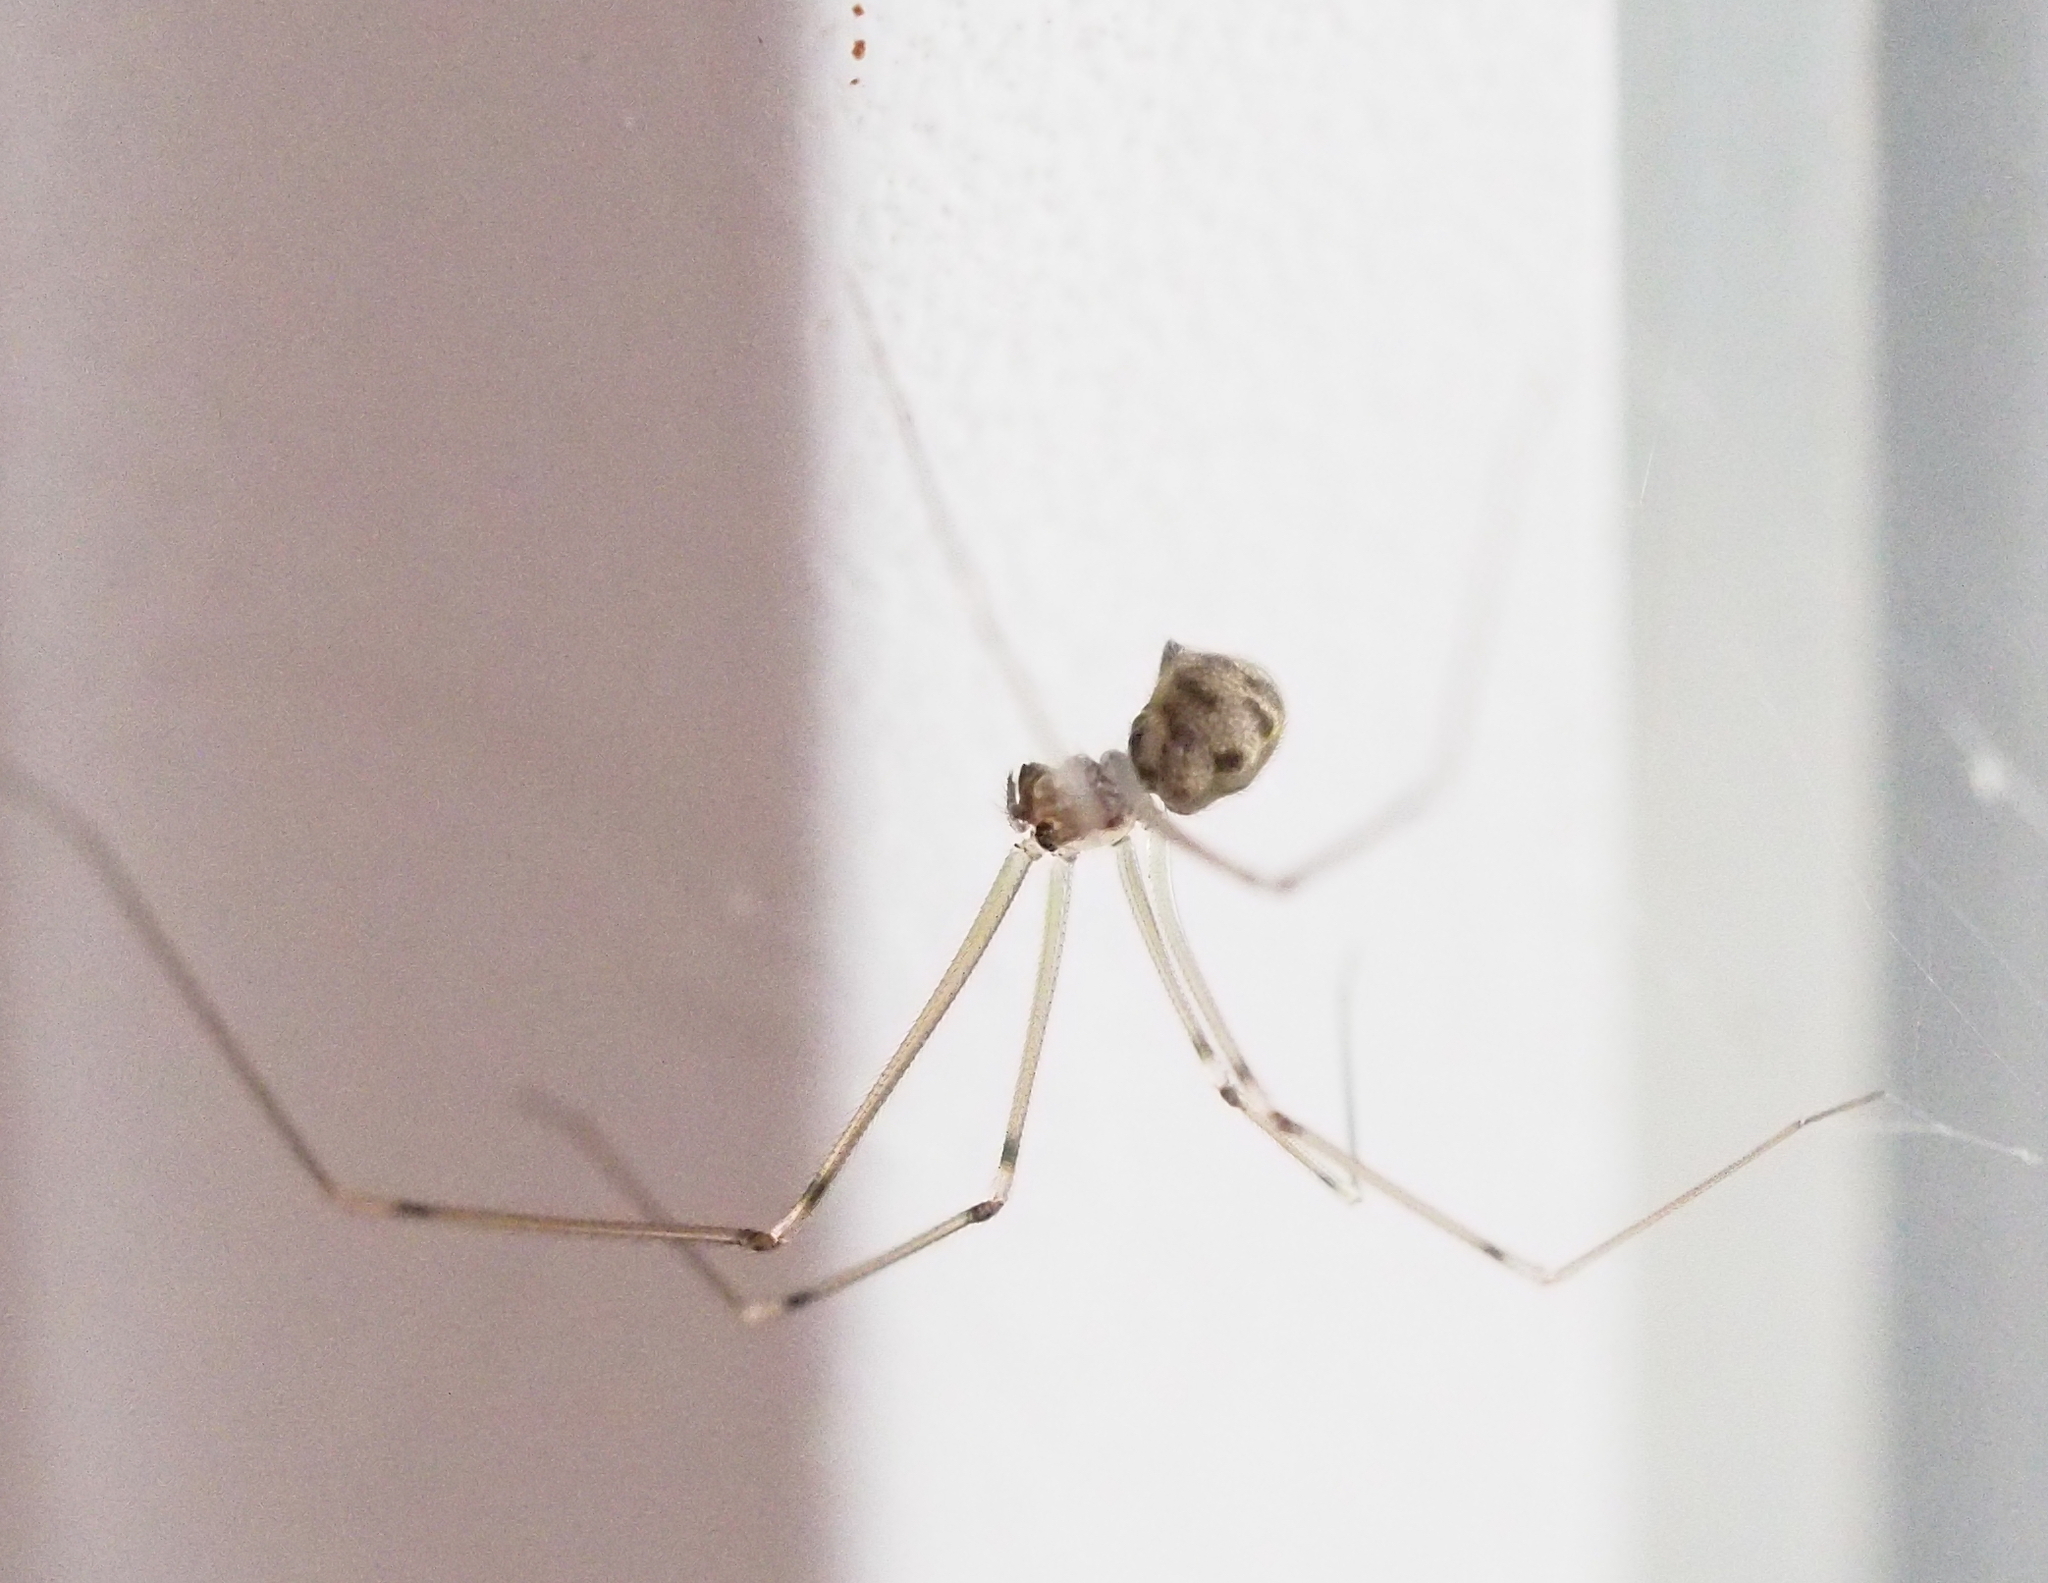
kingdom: Animalia
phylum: Arthropoda
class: Arachnida
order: Araneae
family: Pholcidae
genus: Hoplopholcus
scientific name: Hoplopholcus forskali
